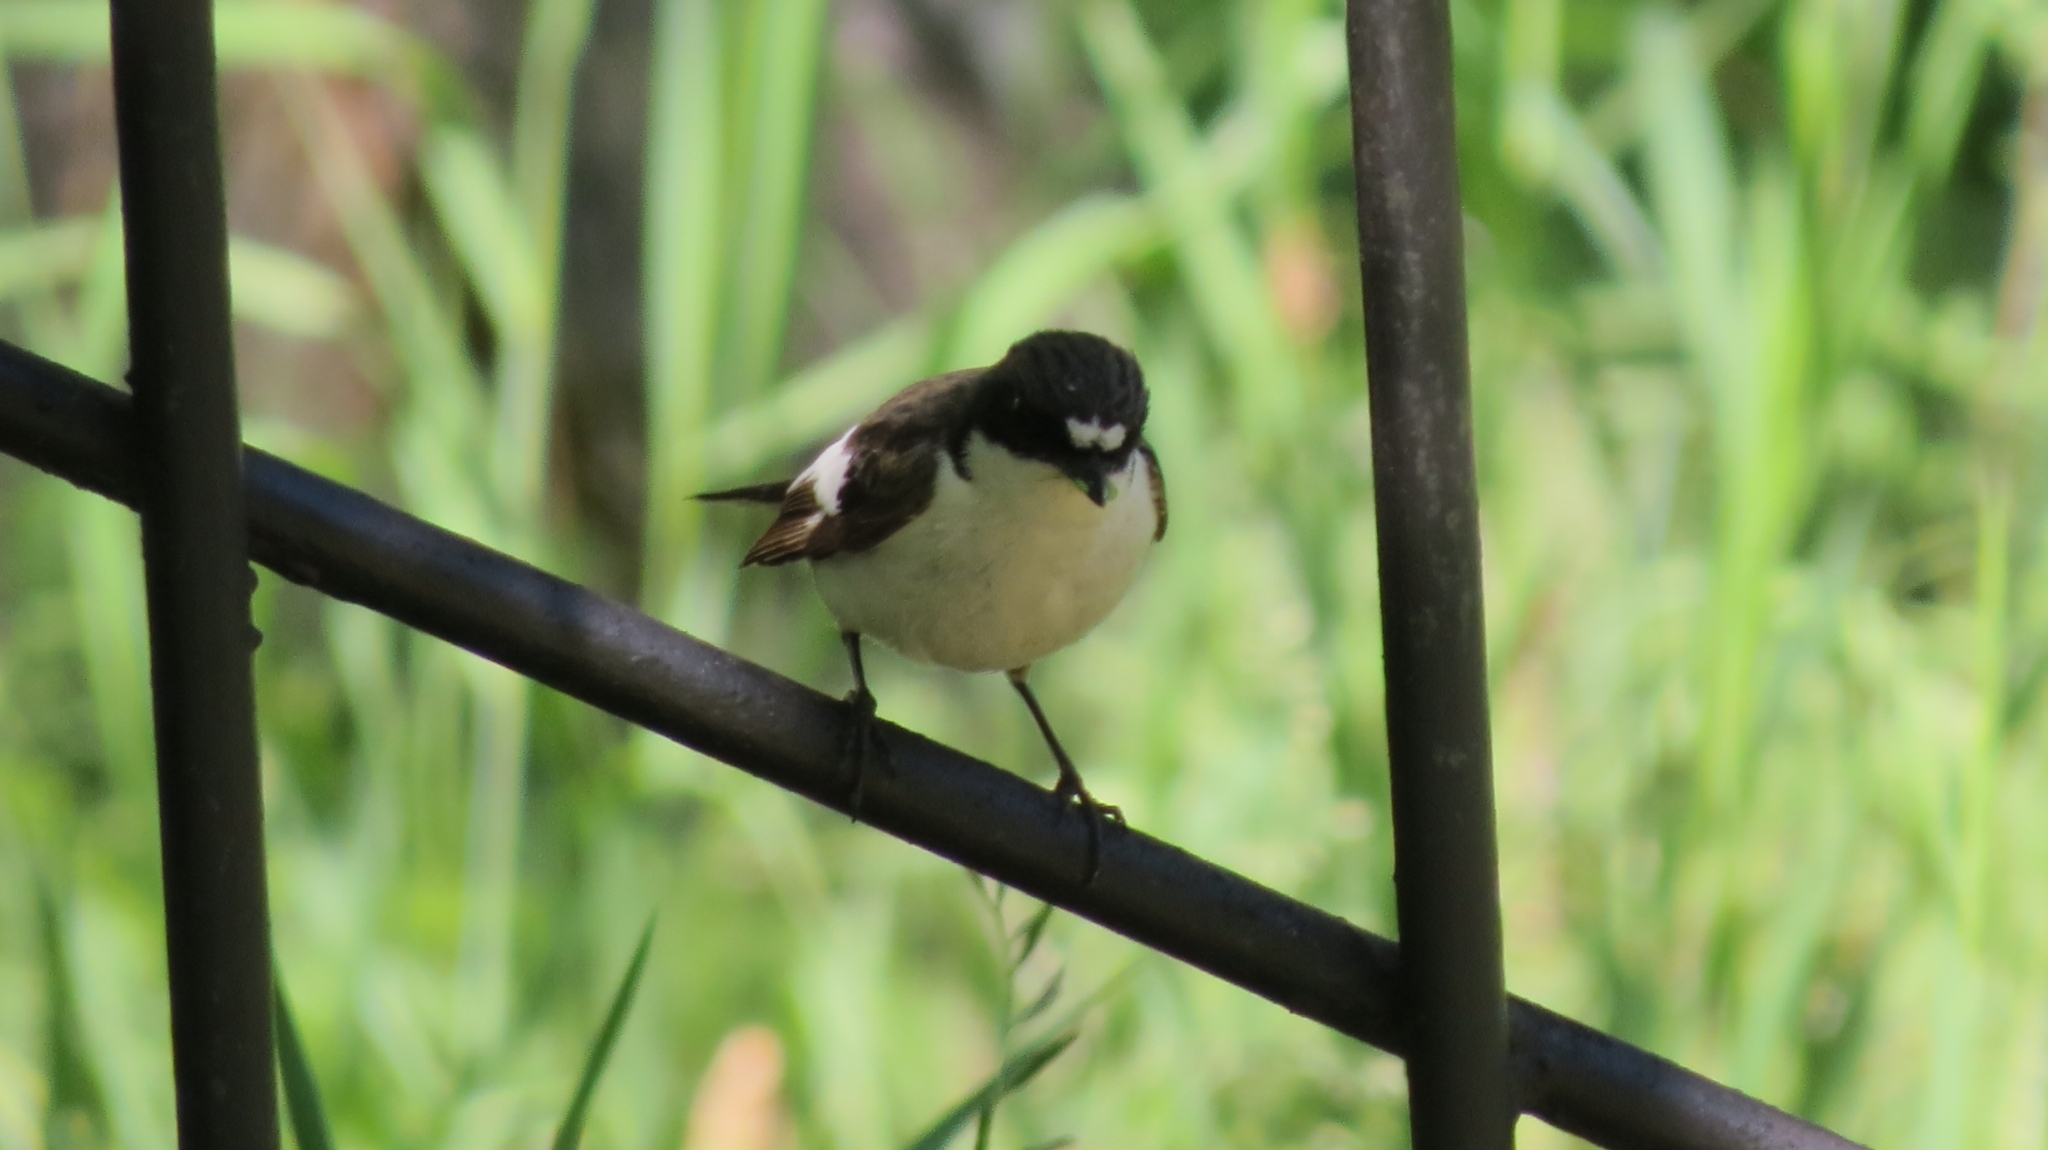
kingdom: Animalia
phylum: Chordata
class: Aves
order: Passeriformes
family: Muscicapidae
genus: Ficedula
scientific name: Ficedula hypoleuca
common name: European pied flycatcher
